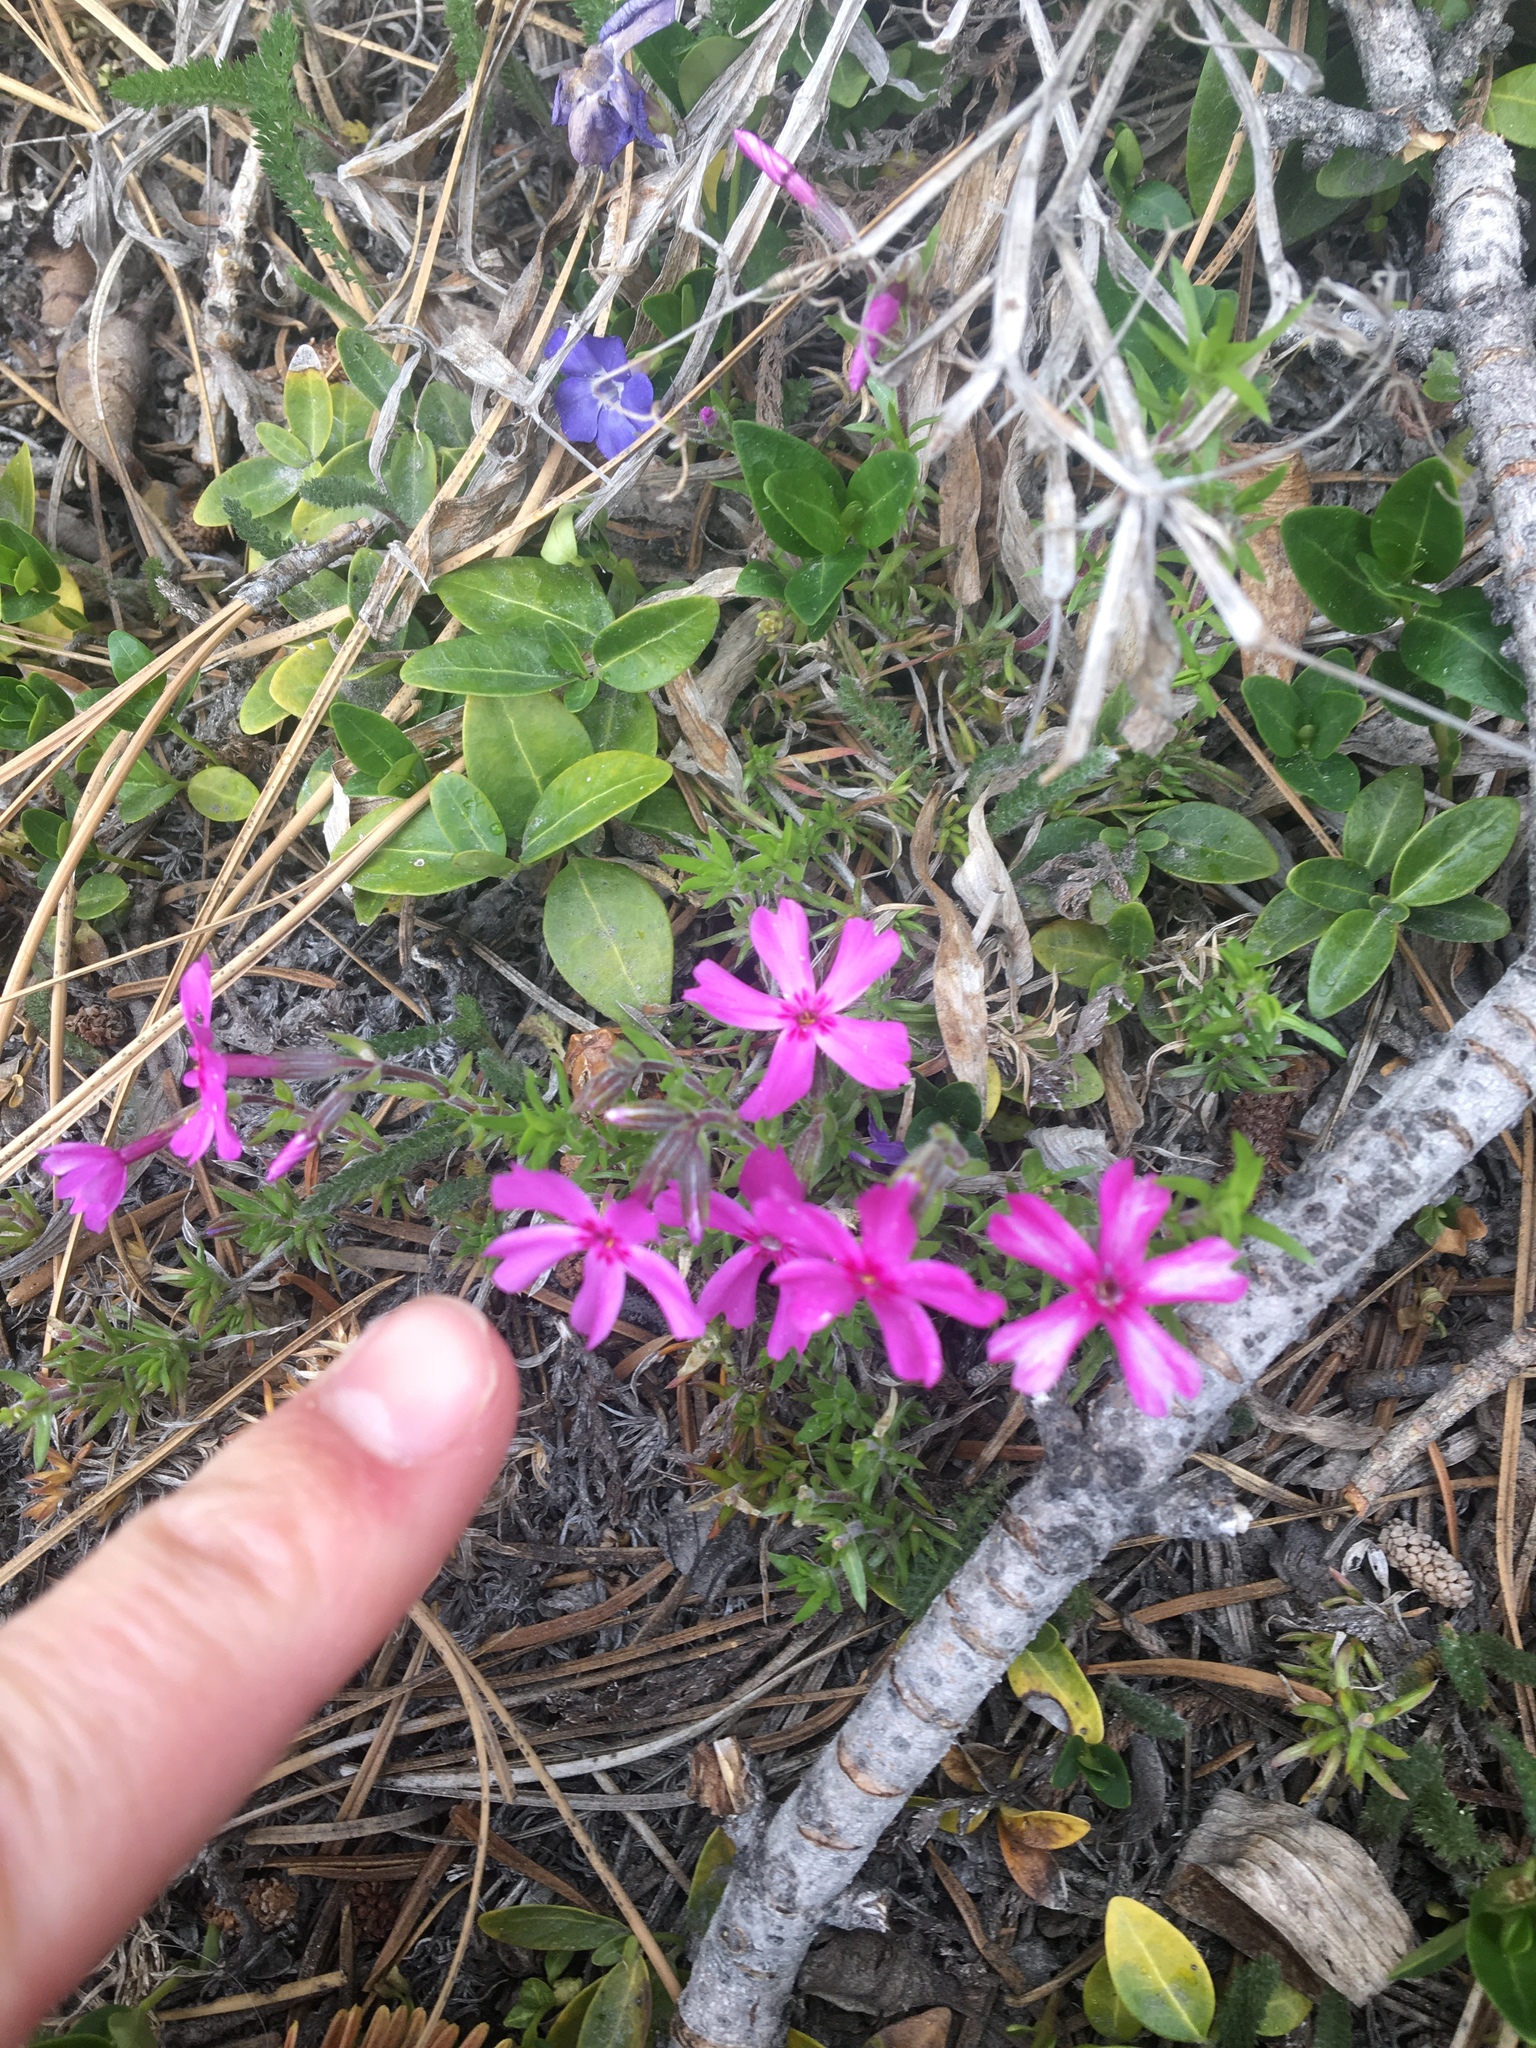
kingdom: Plantae
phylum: Tracheophyta
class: Magnoliopsida
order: Ericales
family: Polemoniaceae
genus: Phlox
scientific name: Phlox subulata
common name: Moss phlox
